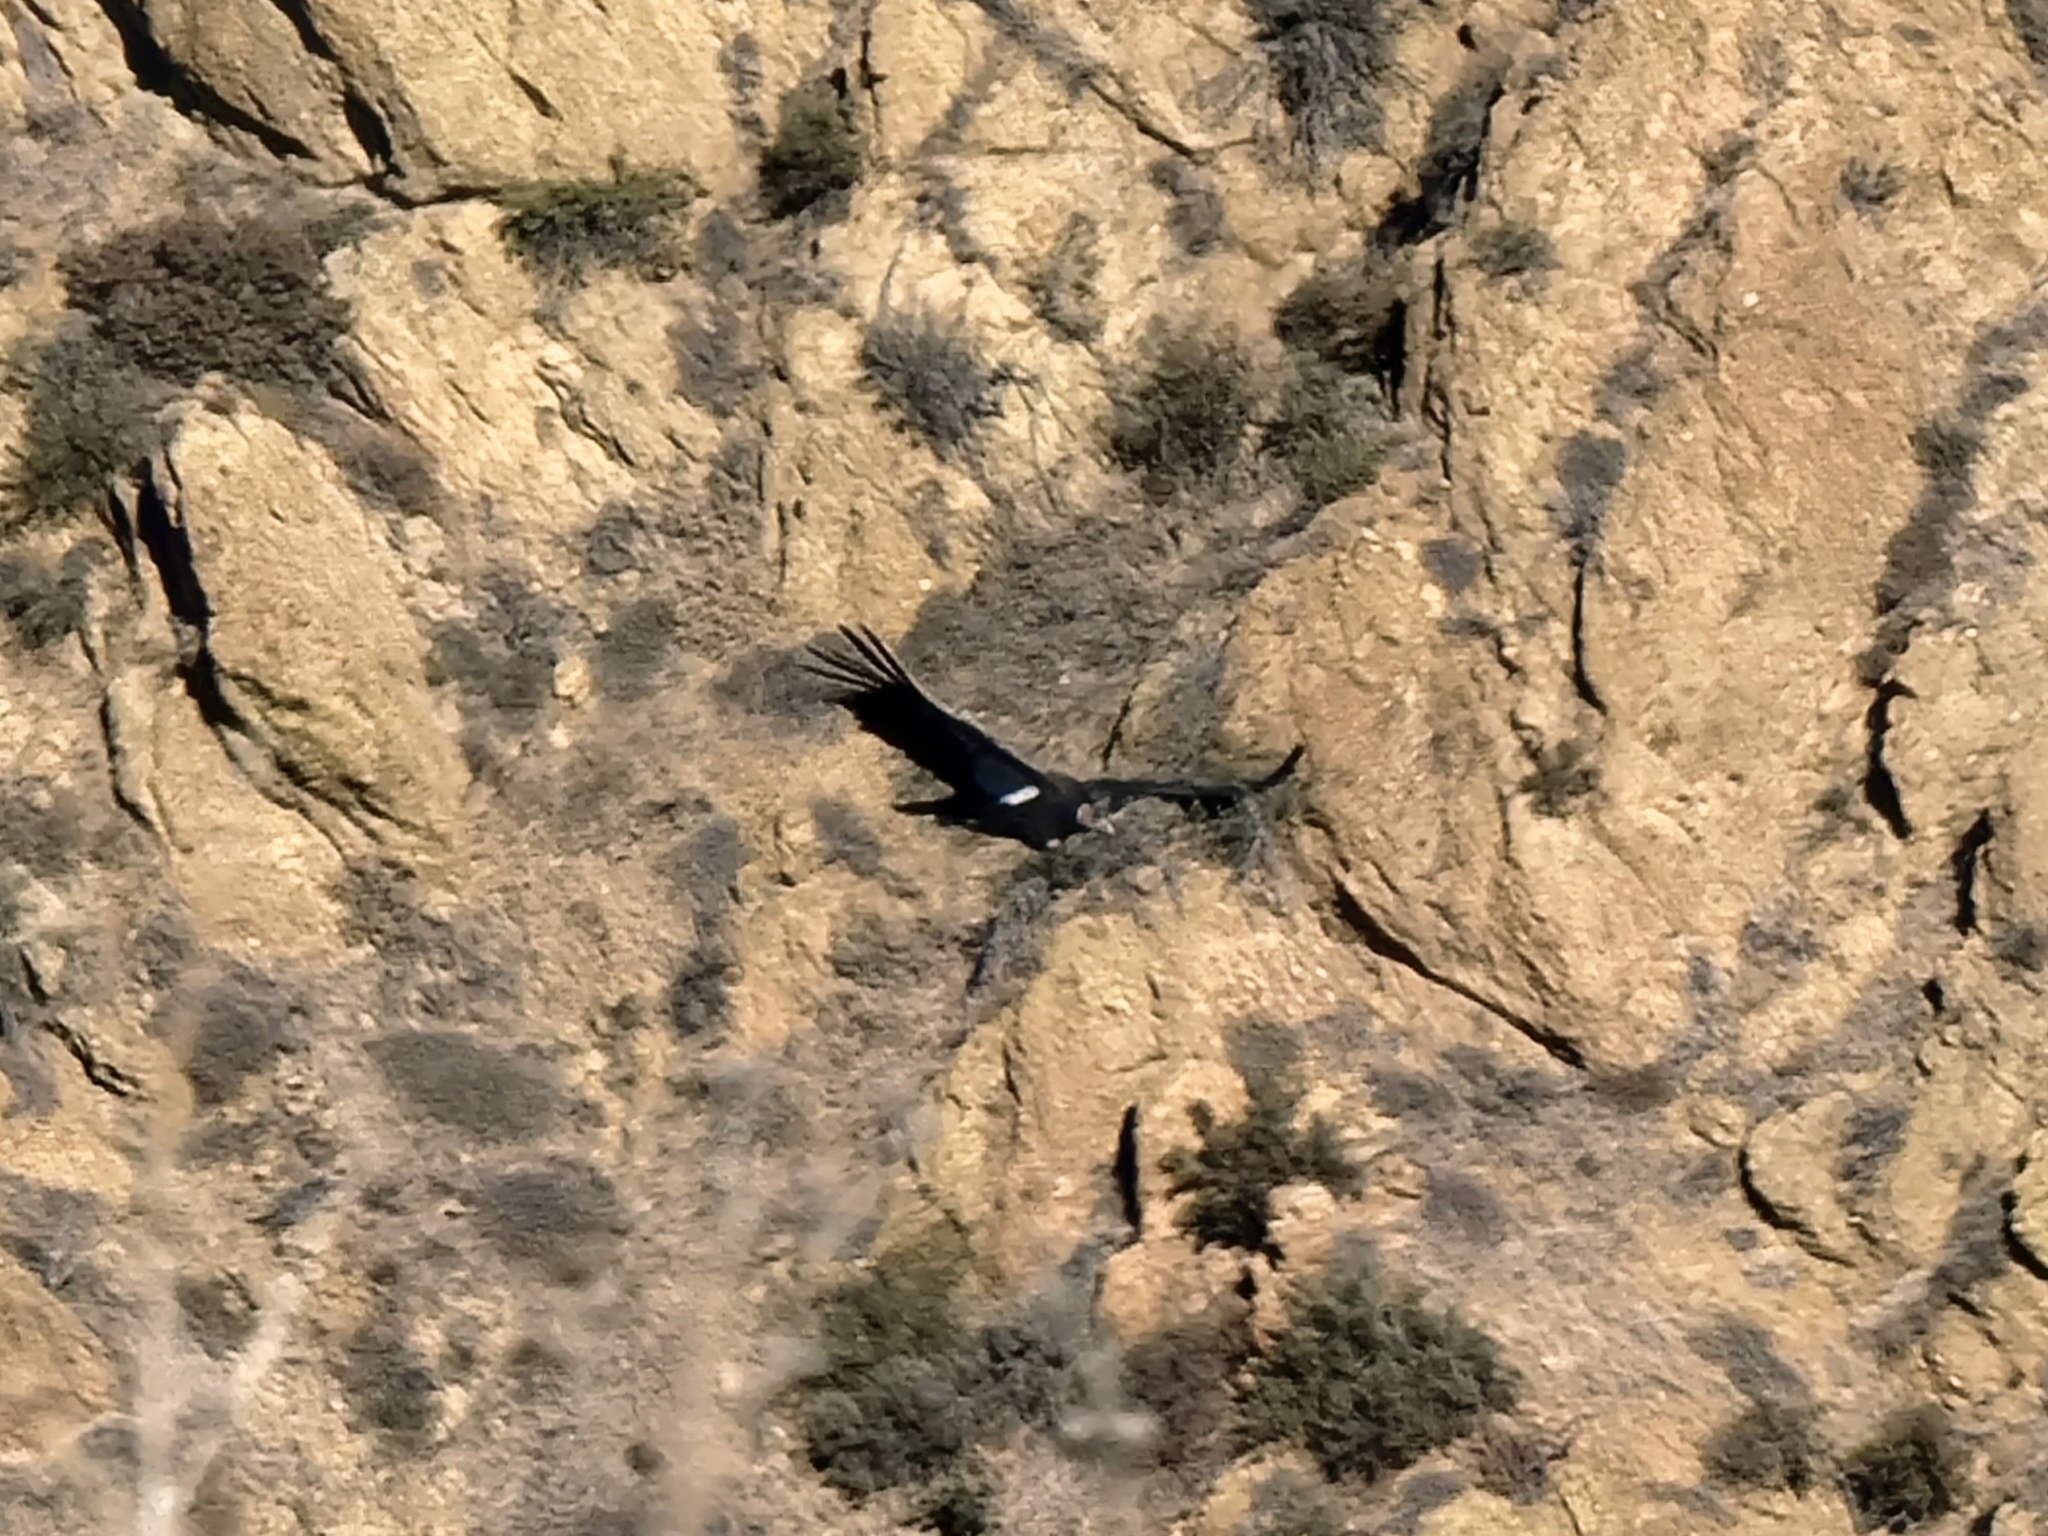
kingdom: Animalia
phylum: Chordata
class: Aves
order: Accipitriformes
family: Cathartidae
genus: Gymnogyps
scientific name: Gymnogyps californianus
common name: California condor
